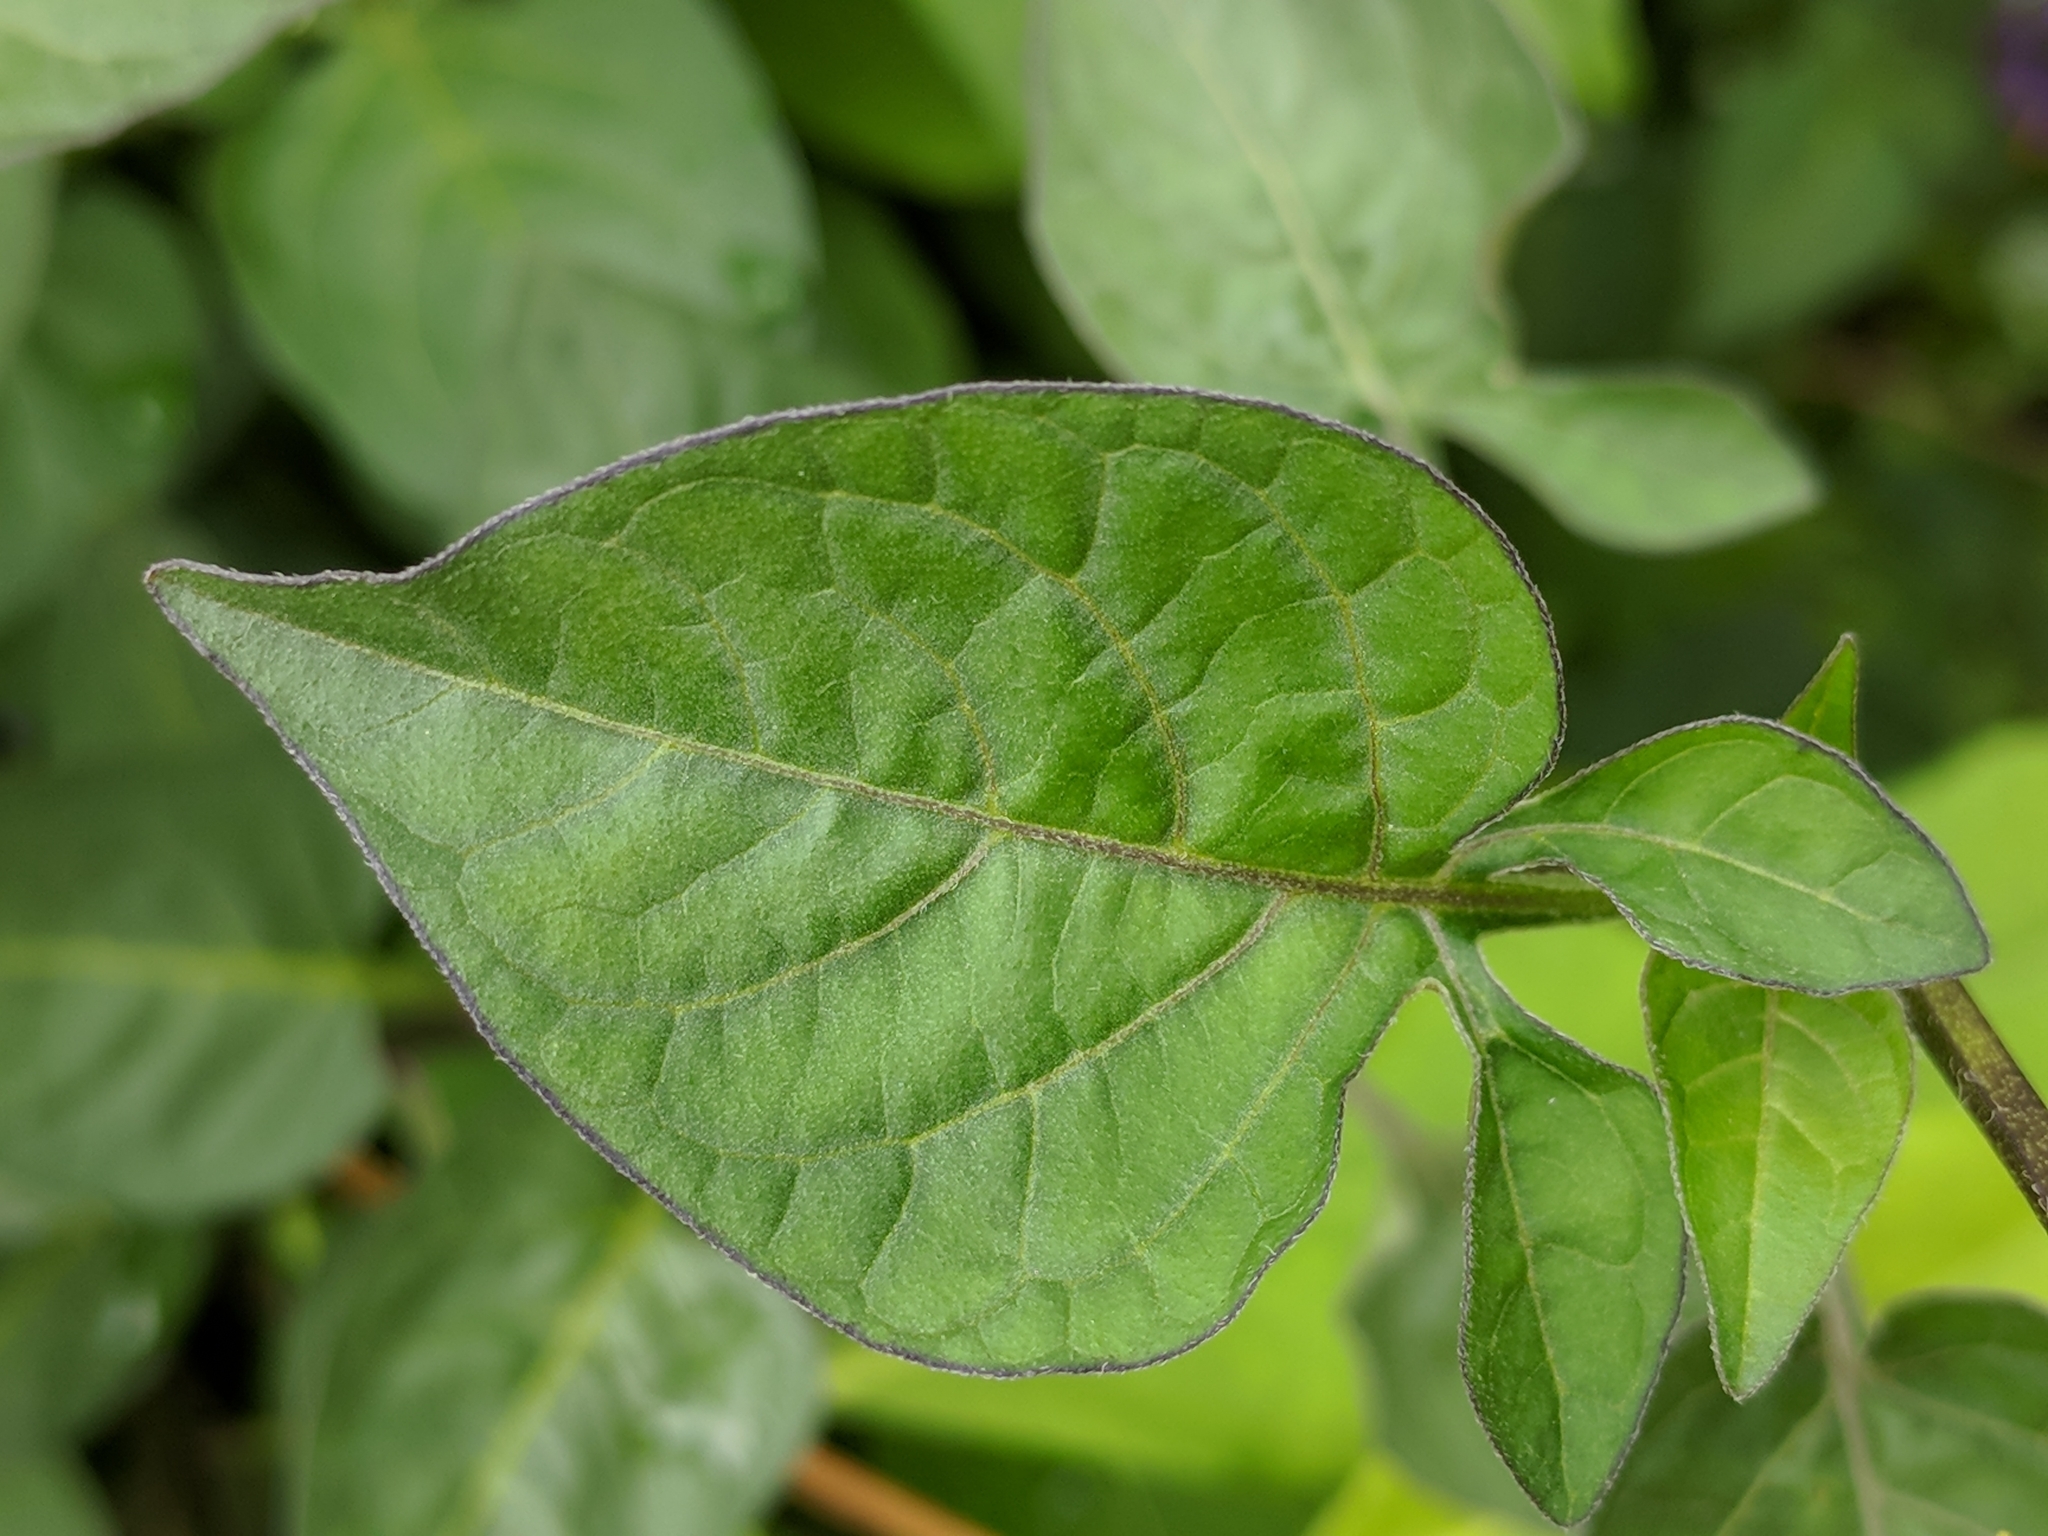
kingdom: Plantae
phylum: Tracheophyta
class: Magnoliopsida
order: Solanales
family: Solanaceae
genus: Solanum
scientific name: Solanum dulcamara
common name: Climbing nightshade
